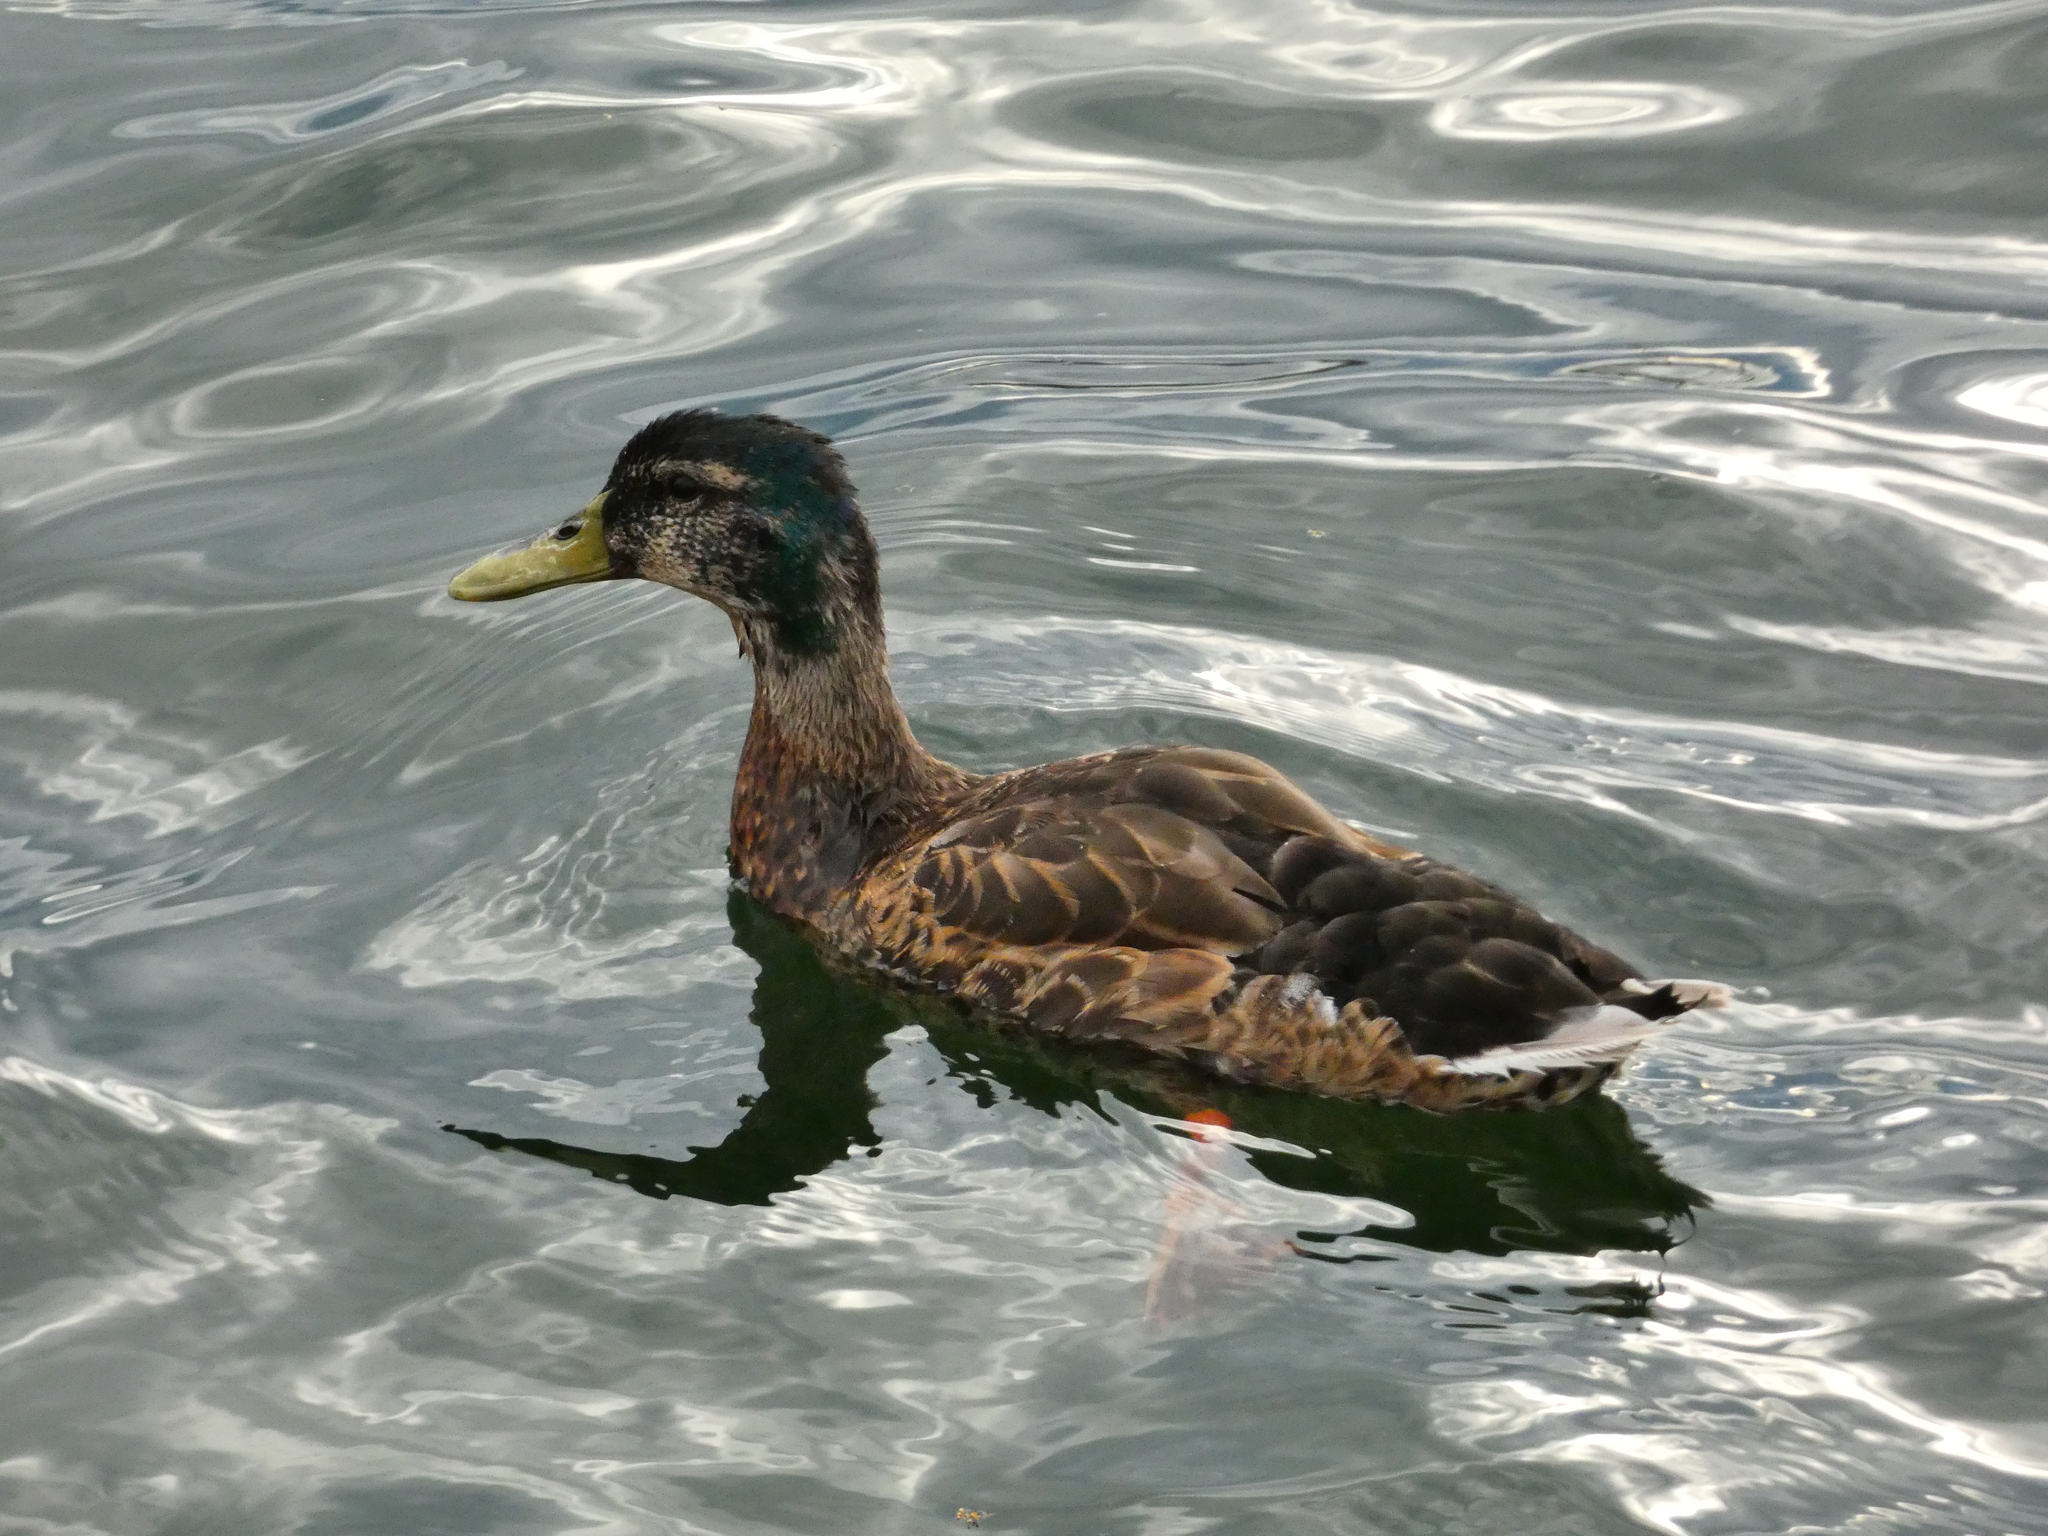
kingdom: Animalia
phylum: Chordata
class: Aves
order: Anseriformes
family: Anatidae
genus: Anas
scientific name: Anas platyrhynchos
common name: Mallard
